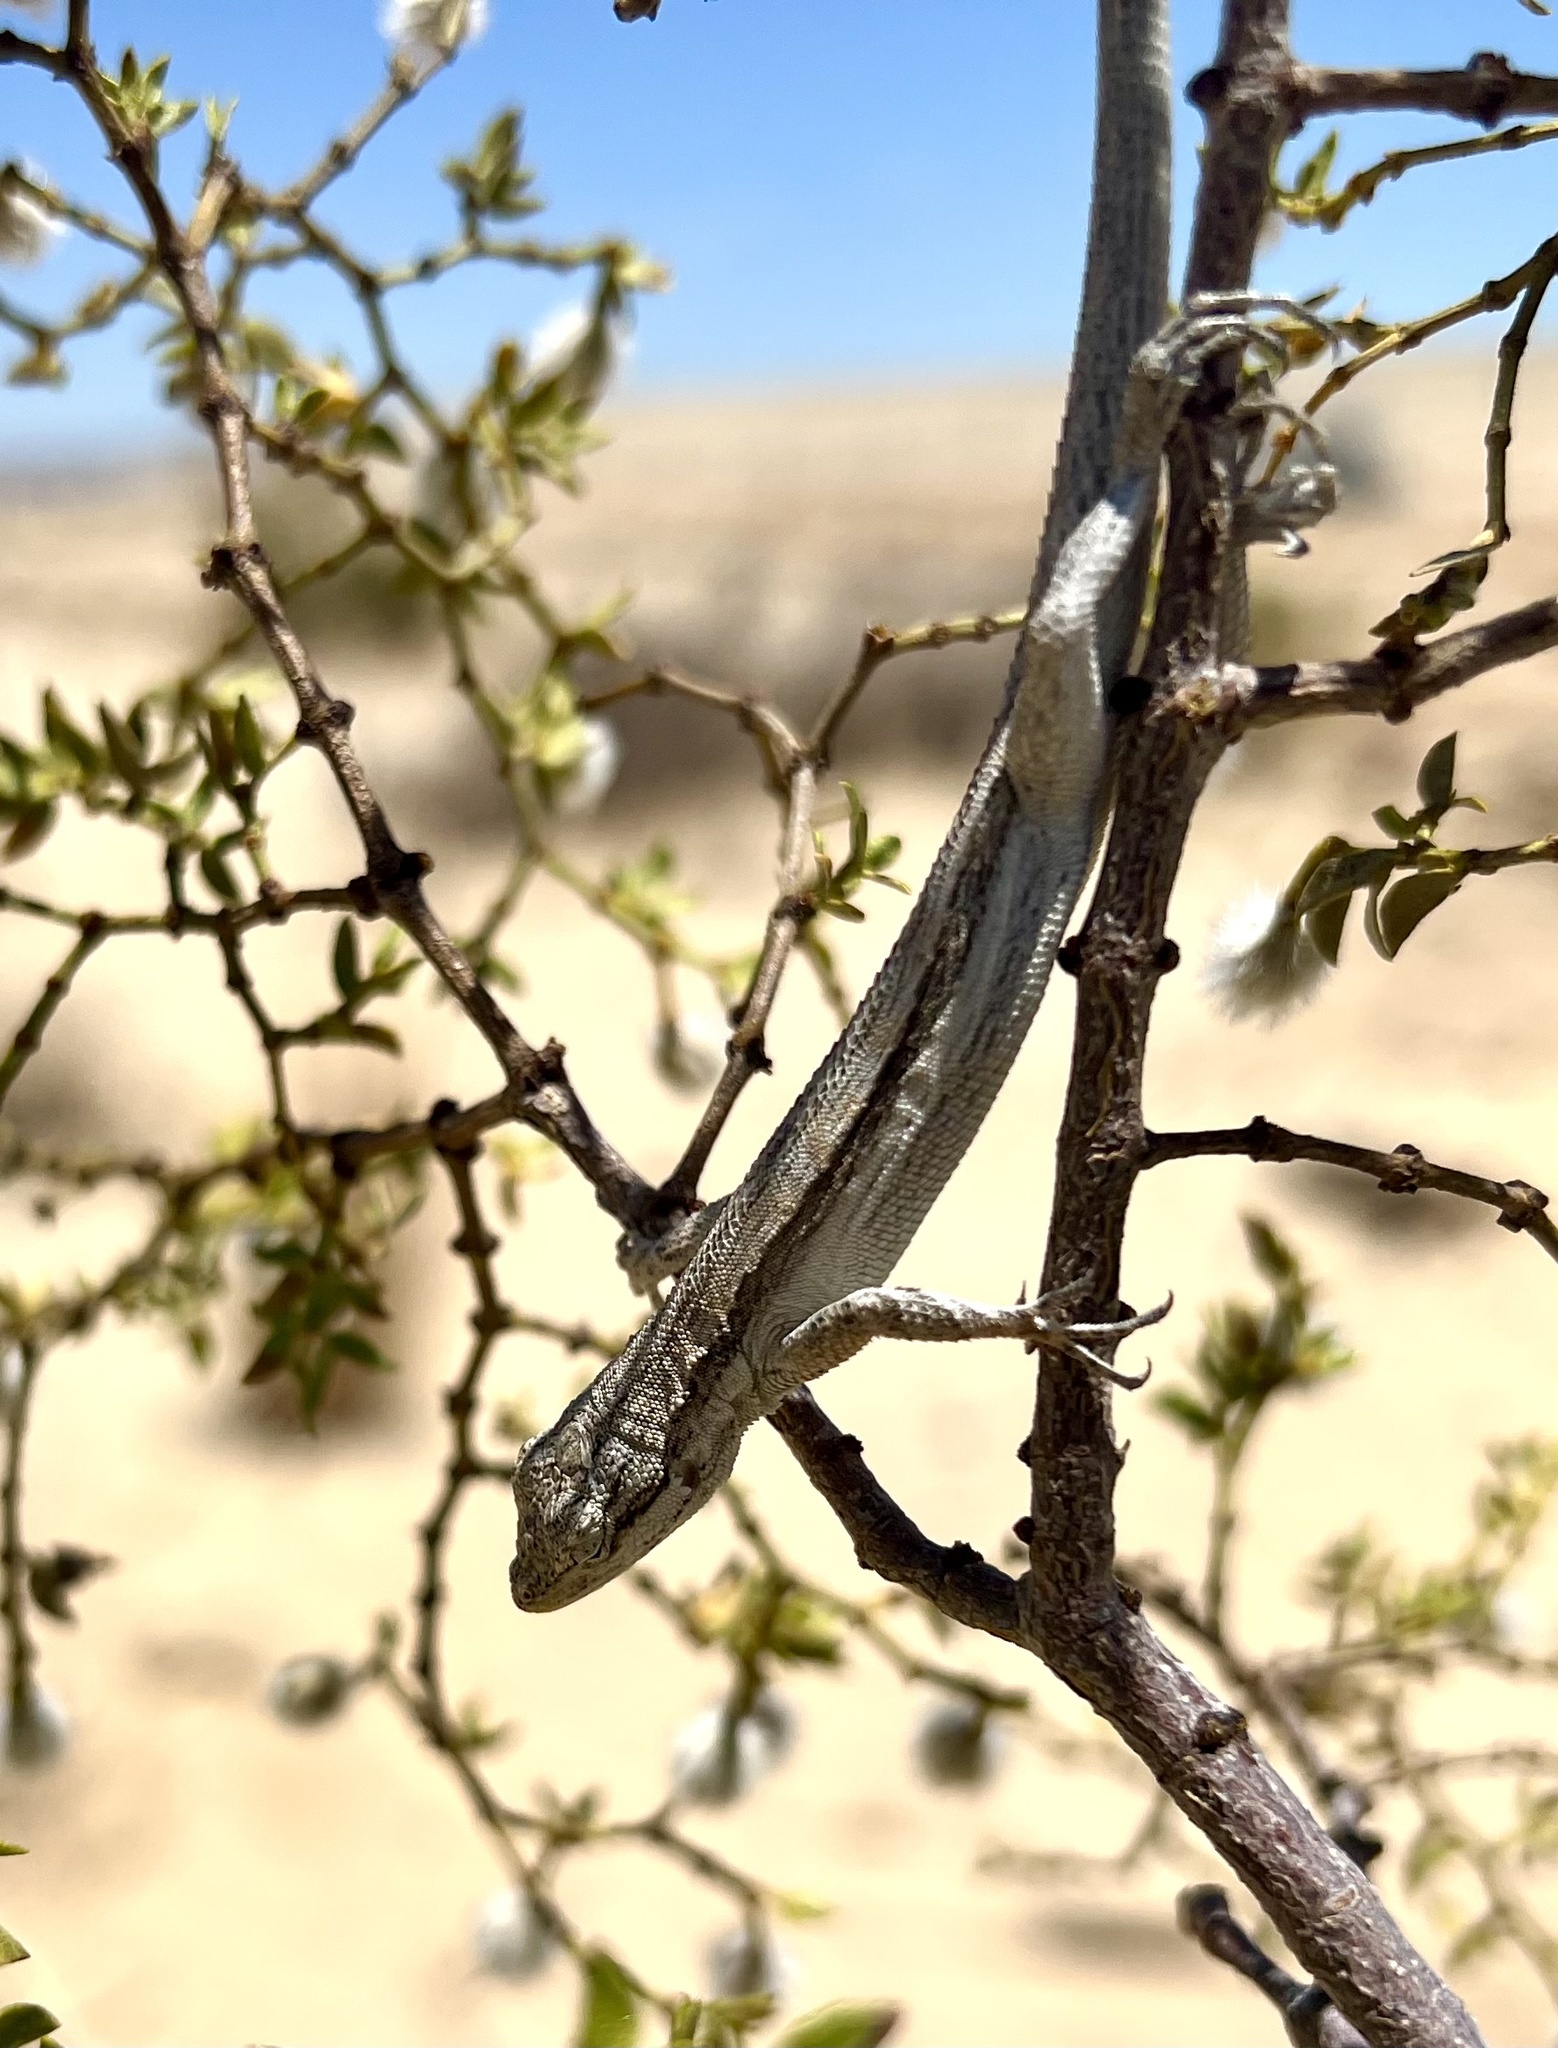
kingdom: Animalia
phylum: Chordata
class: Squamata
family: Phrynosomatidae
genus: Urosaurus
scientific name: Urosaurus graciosus
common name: Long-tailed brush lizard
